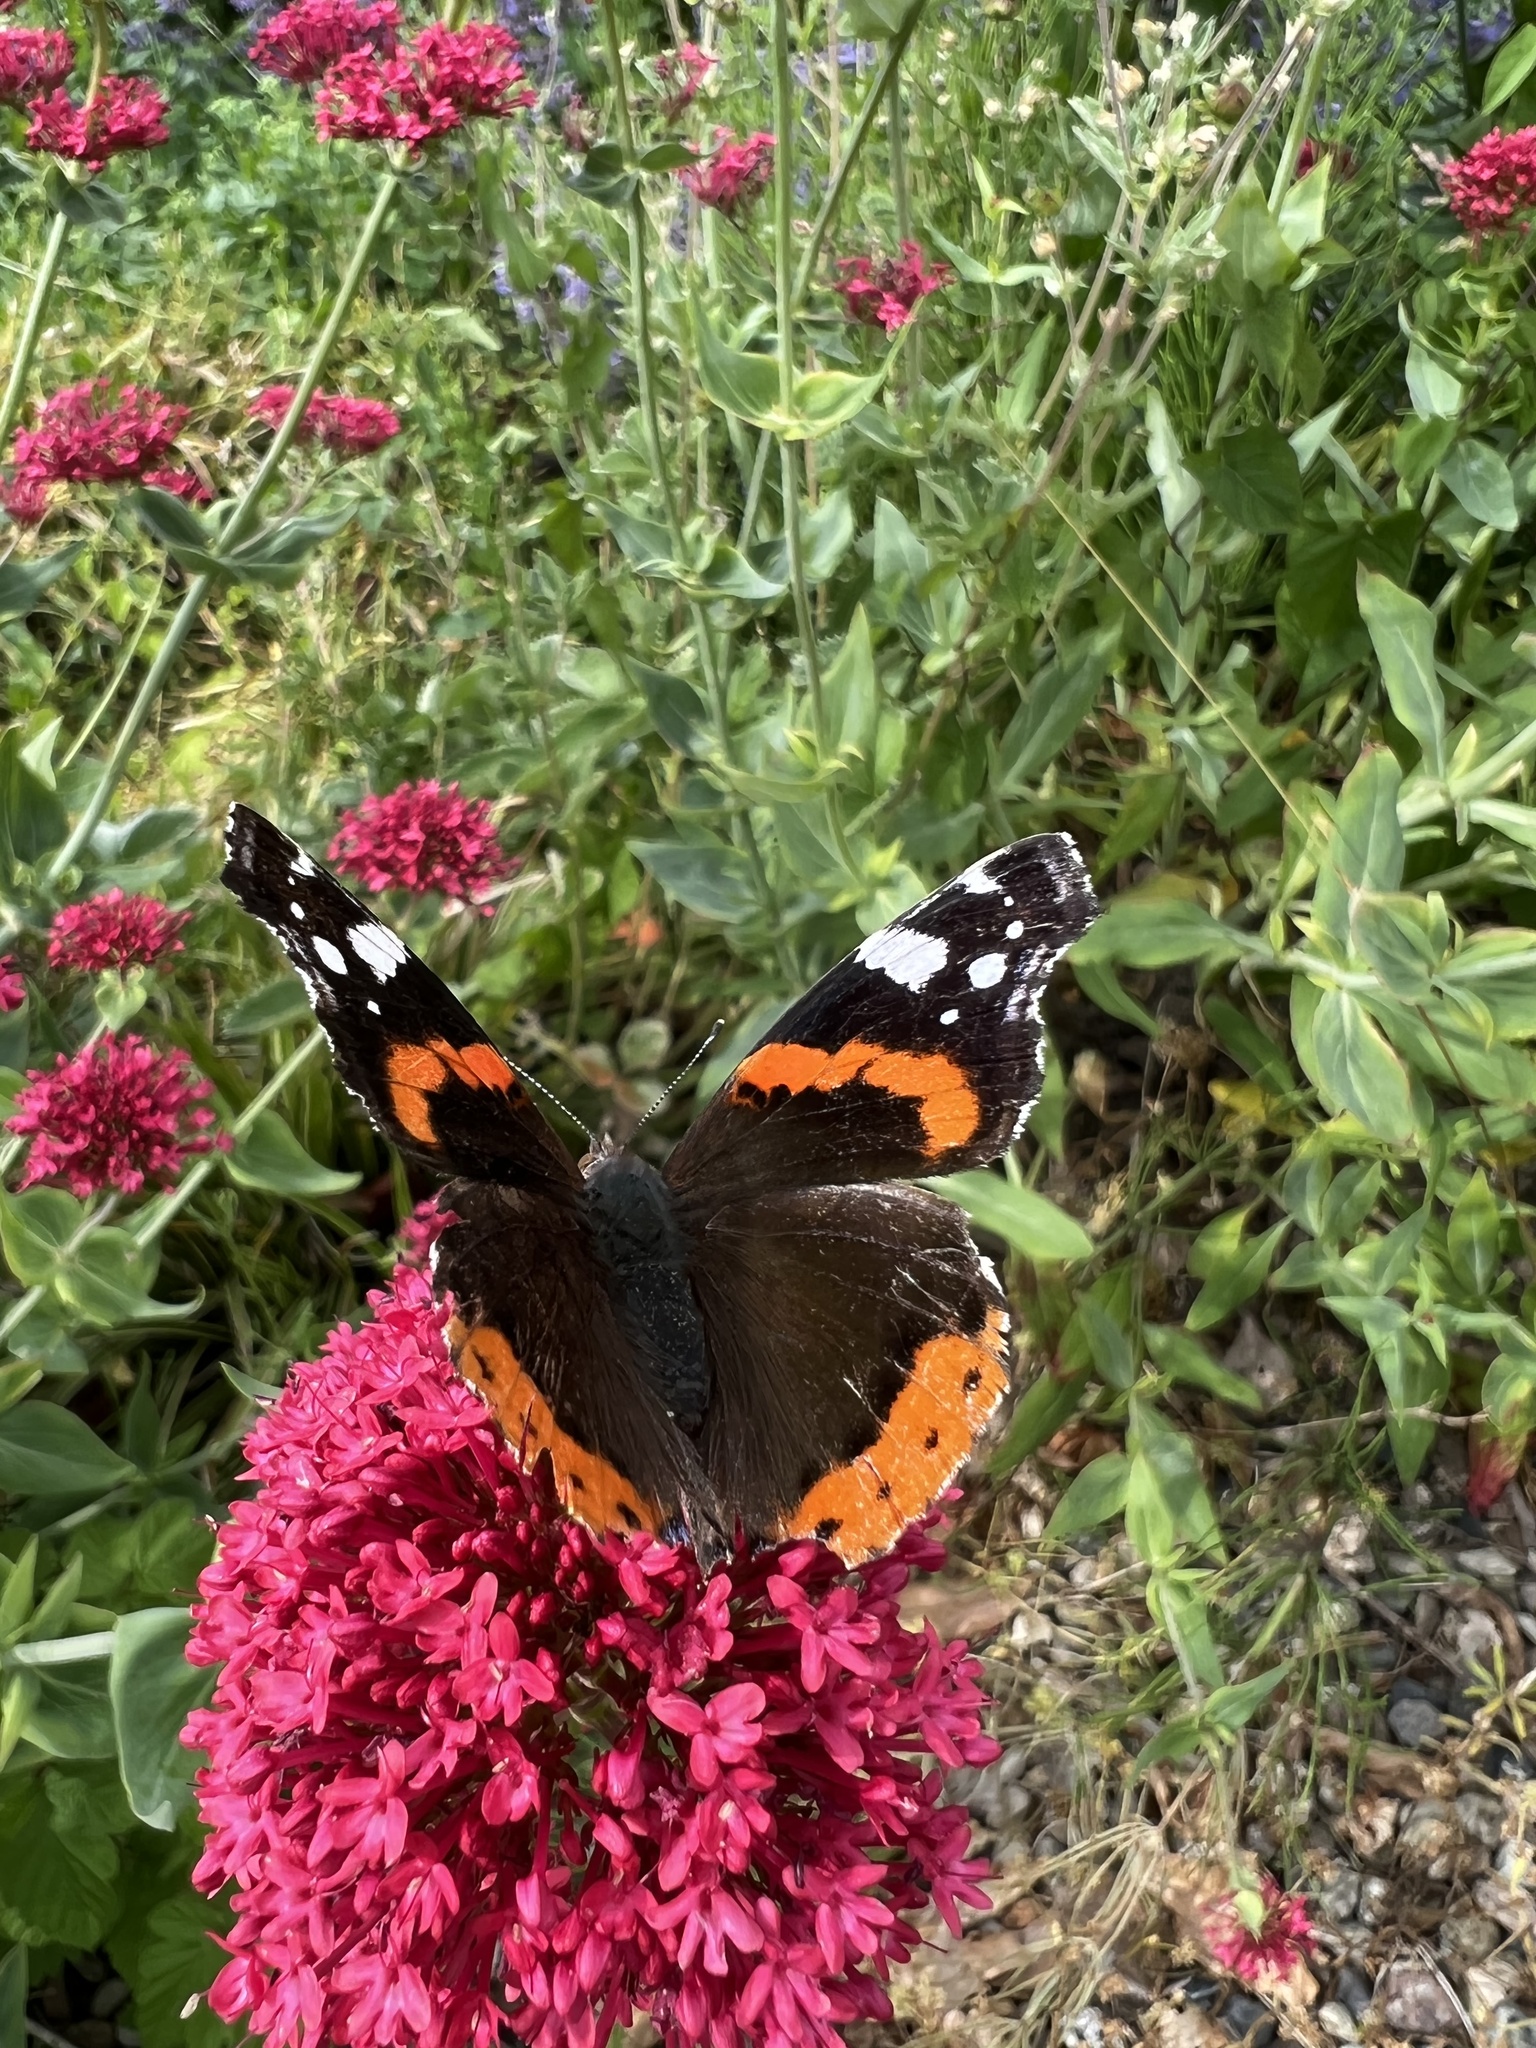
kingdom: Animalia
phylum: Arthropoda
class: Insecta
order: Lepidoptera
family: Nymphalidae
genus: Vanessa
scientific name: Vanessa atalanta
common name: Red admiral
